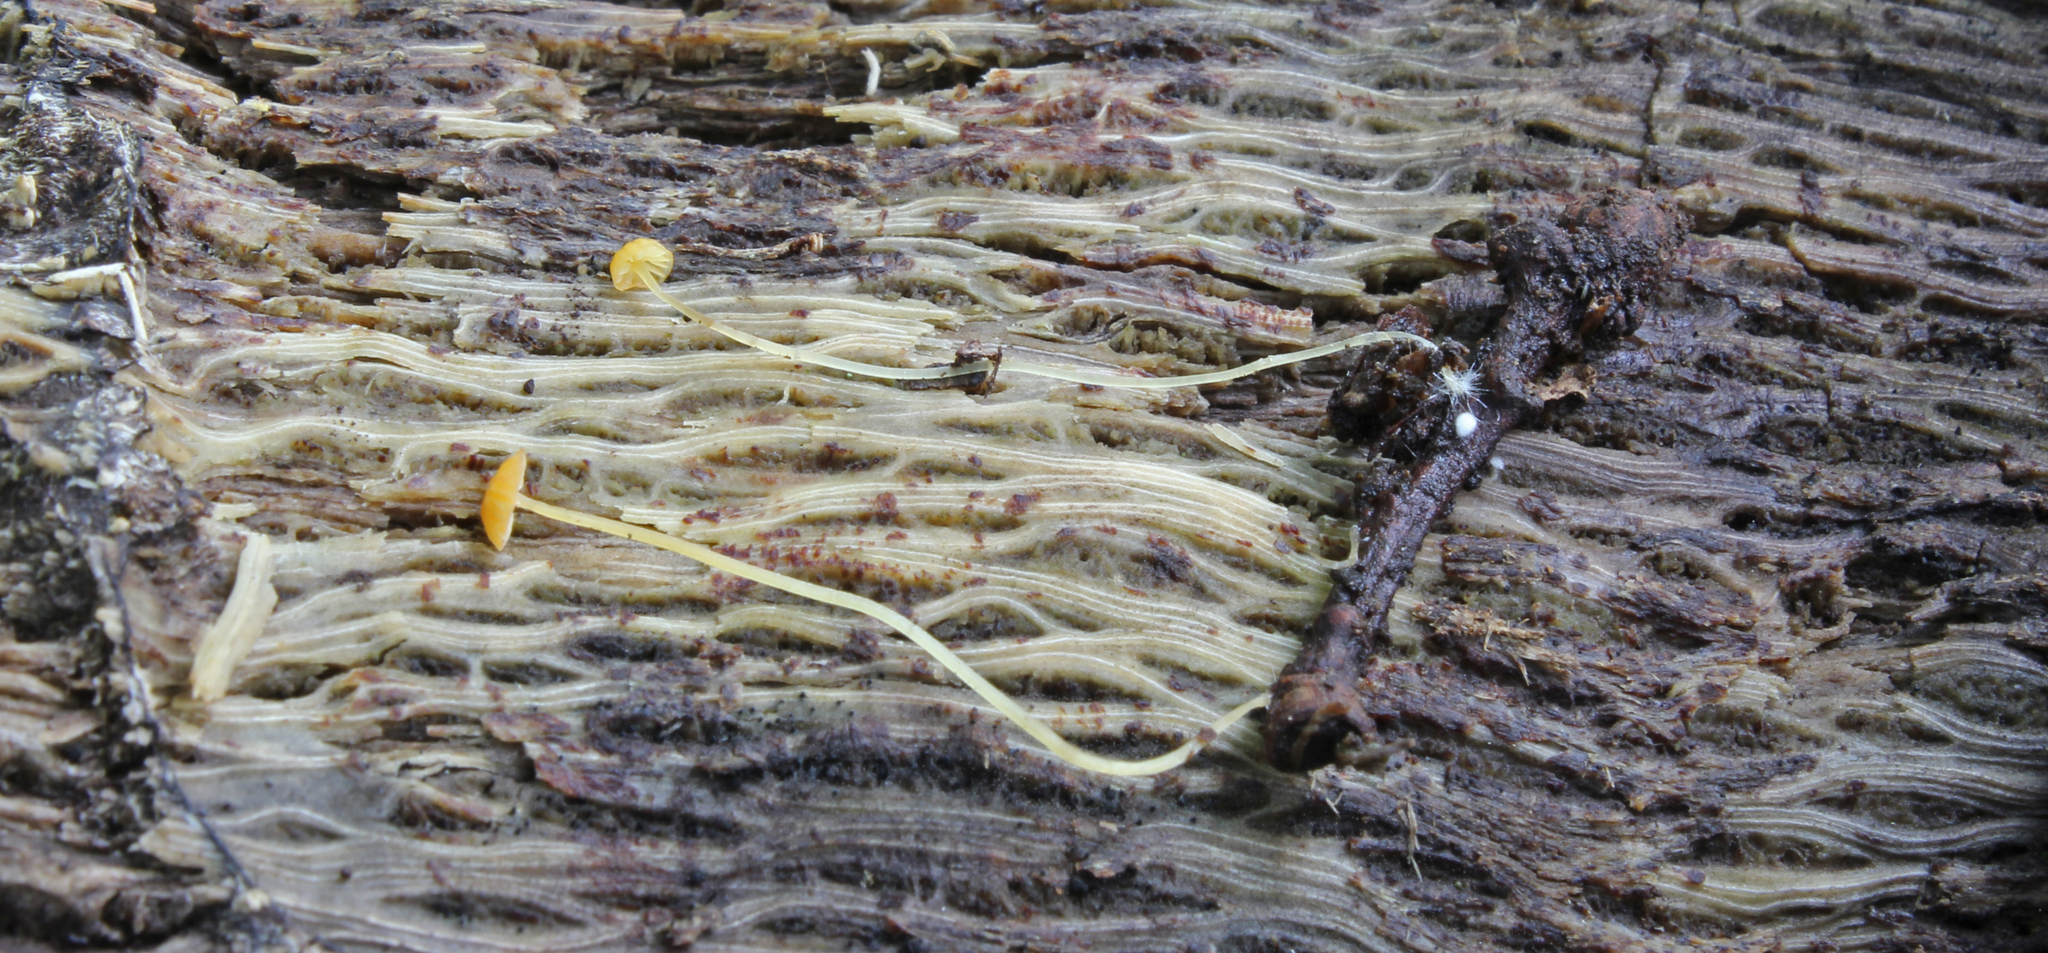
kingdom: Fungi
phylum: Basidiomycota
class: Agaricomycetes
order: Agaricales
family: Mycenaceae
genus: Mycena
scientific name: Mycena acicula
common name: Orange bonnet
